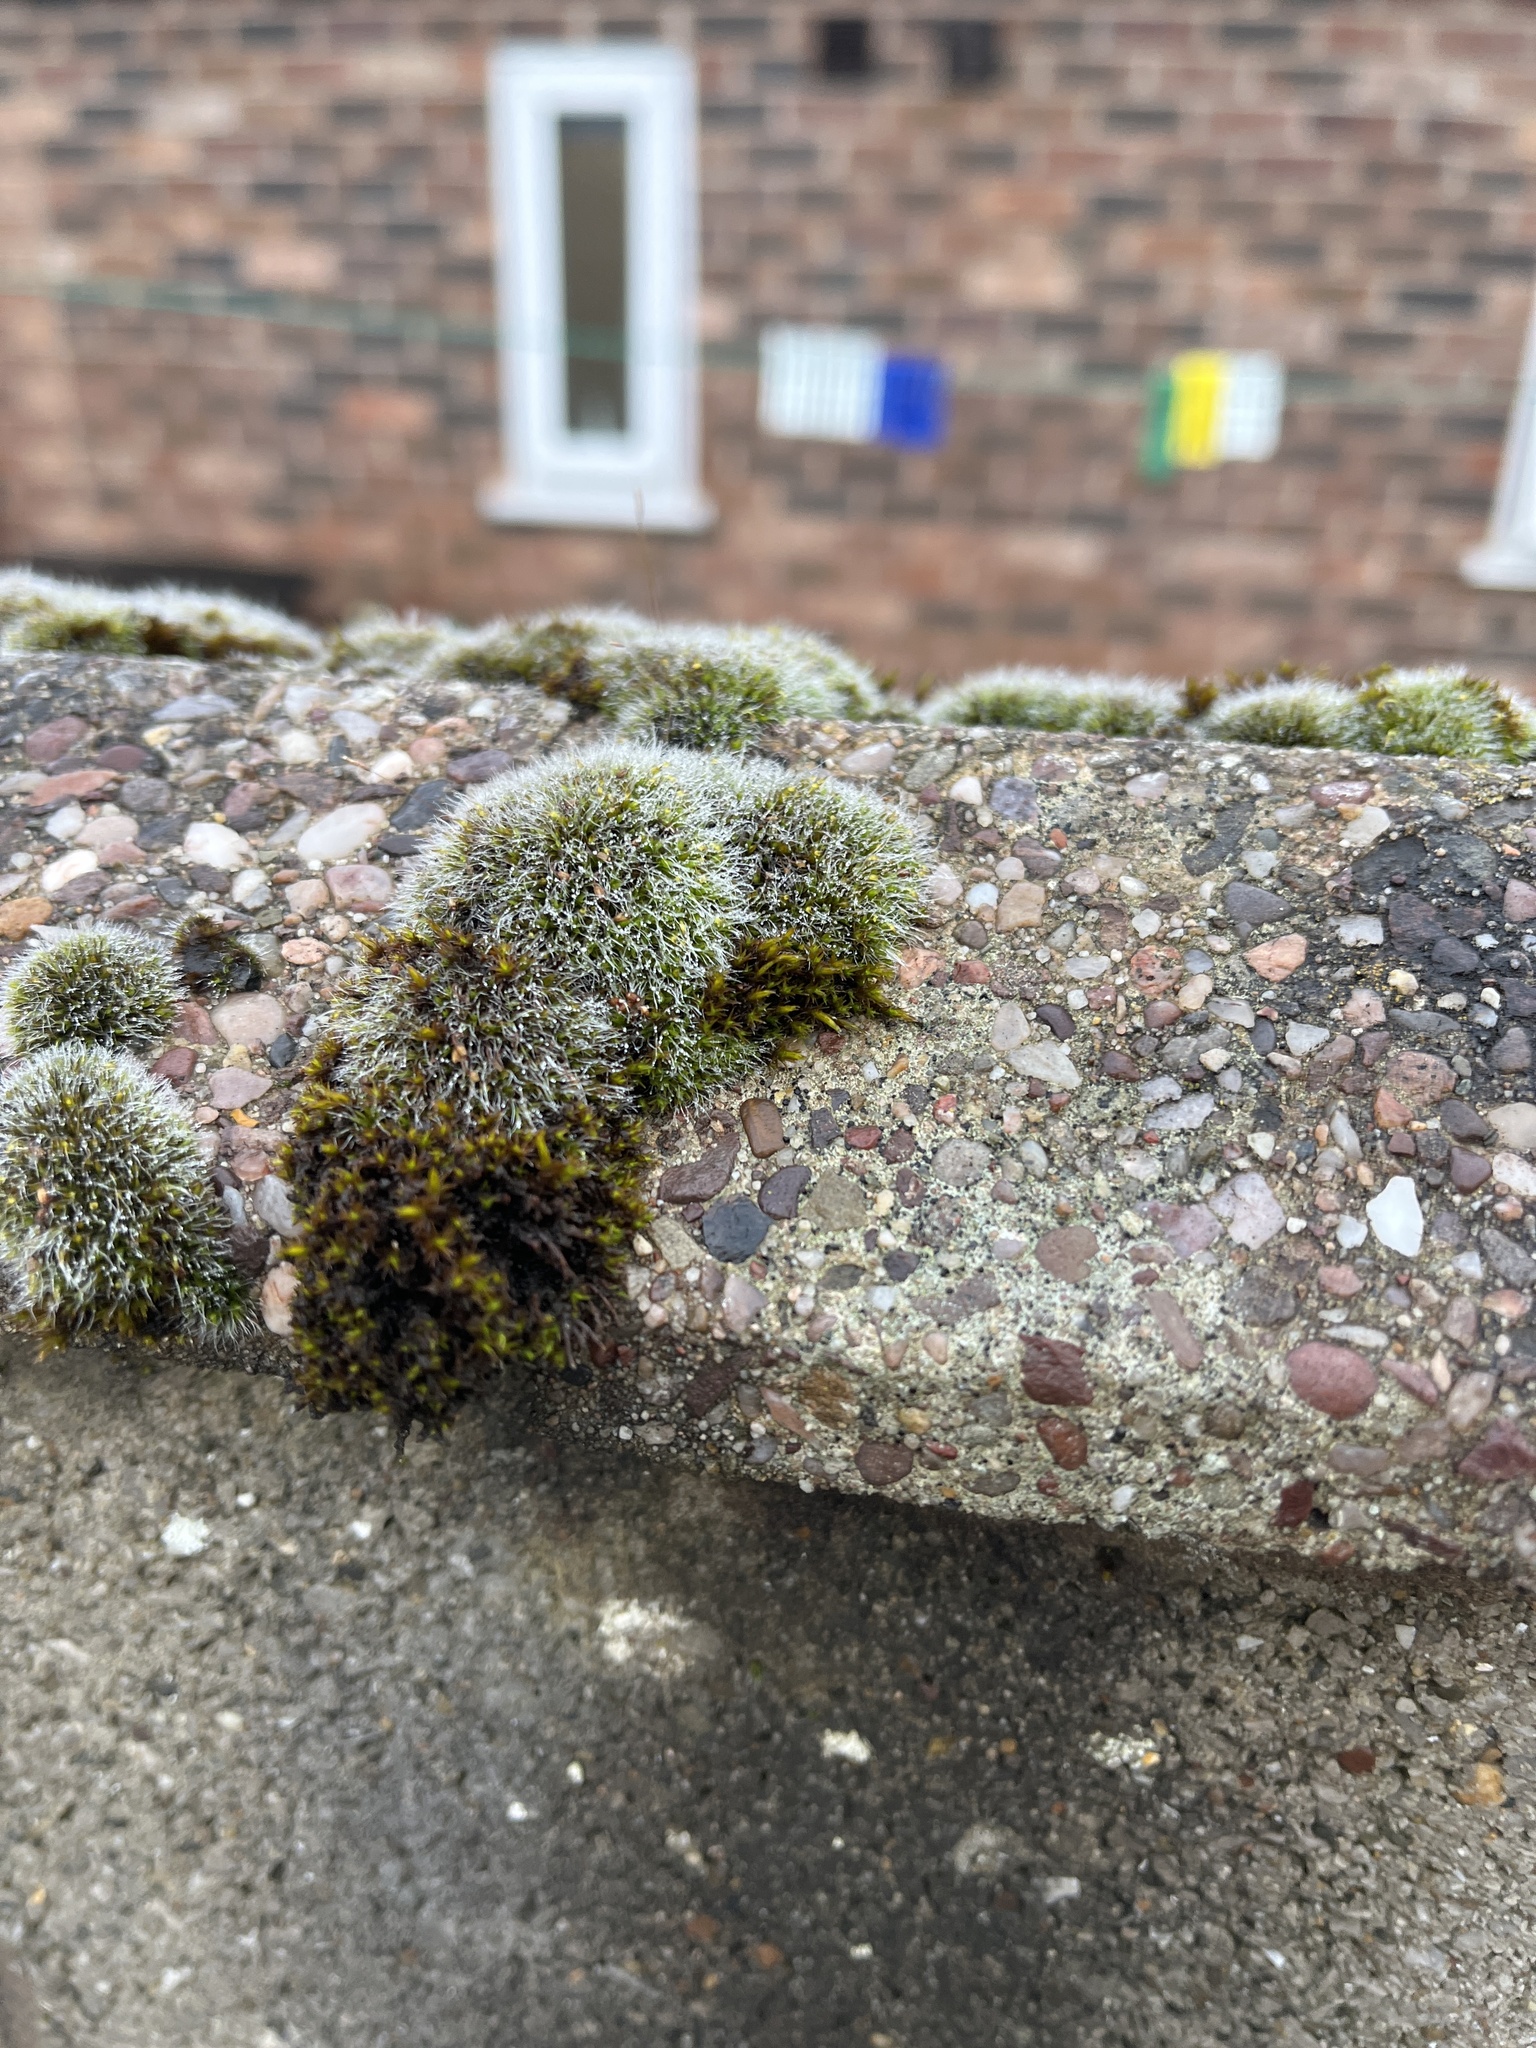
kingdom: Plantae
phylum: Bryophyta
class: Bryopsida
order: Grimmiales
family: Grimmiaceae
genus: Grimmia
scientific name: Grimmia pulvinata
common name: Grey-cushioned grimmia
